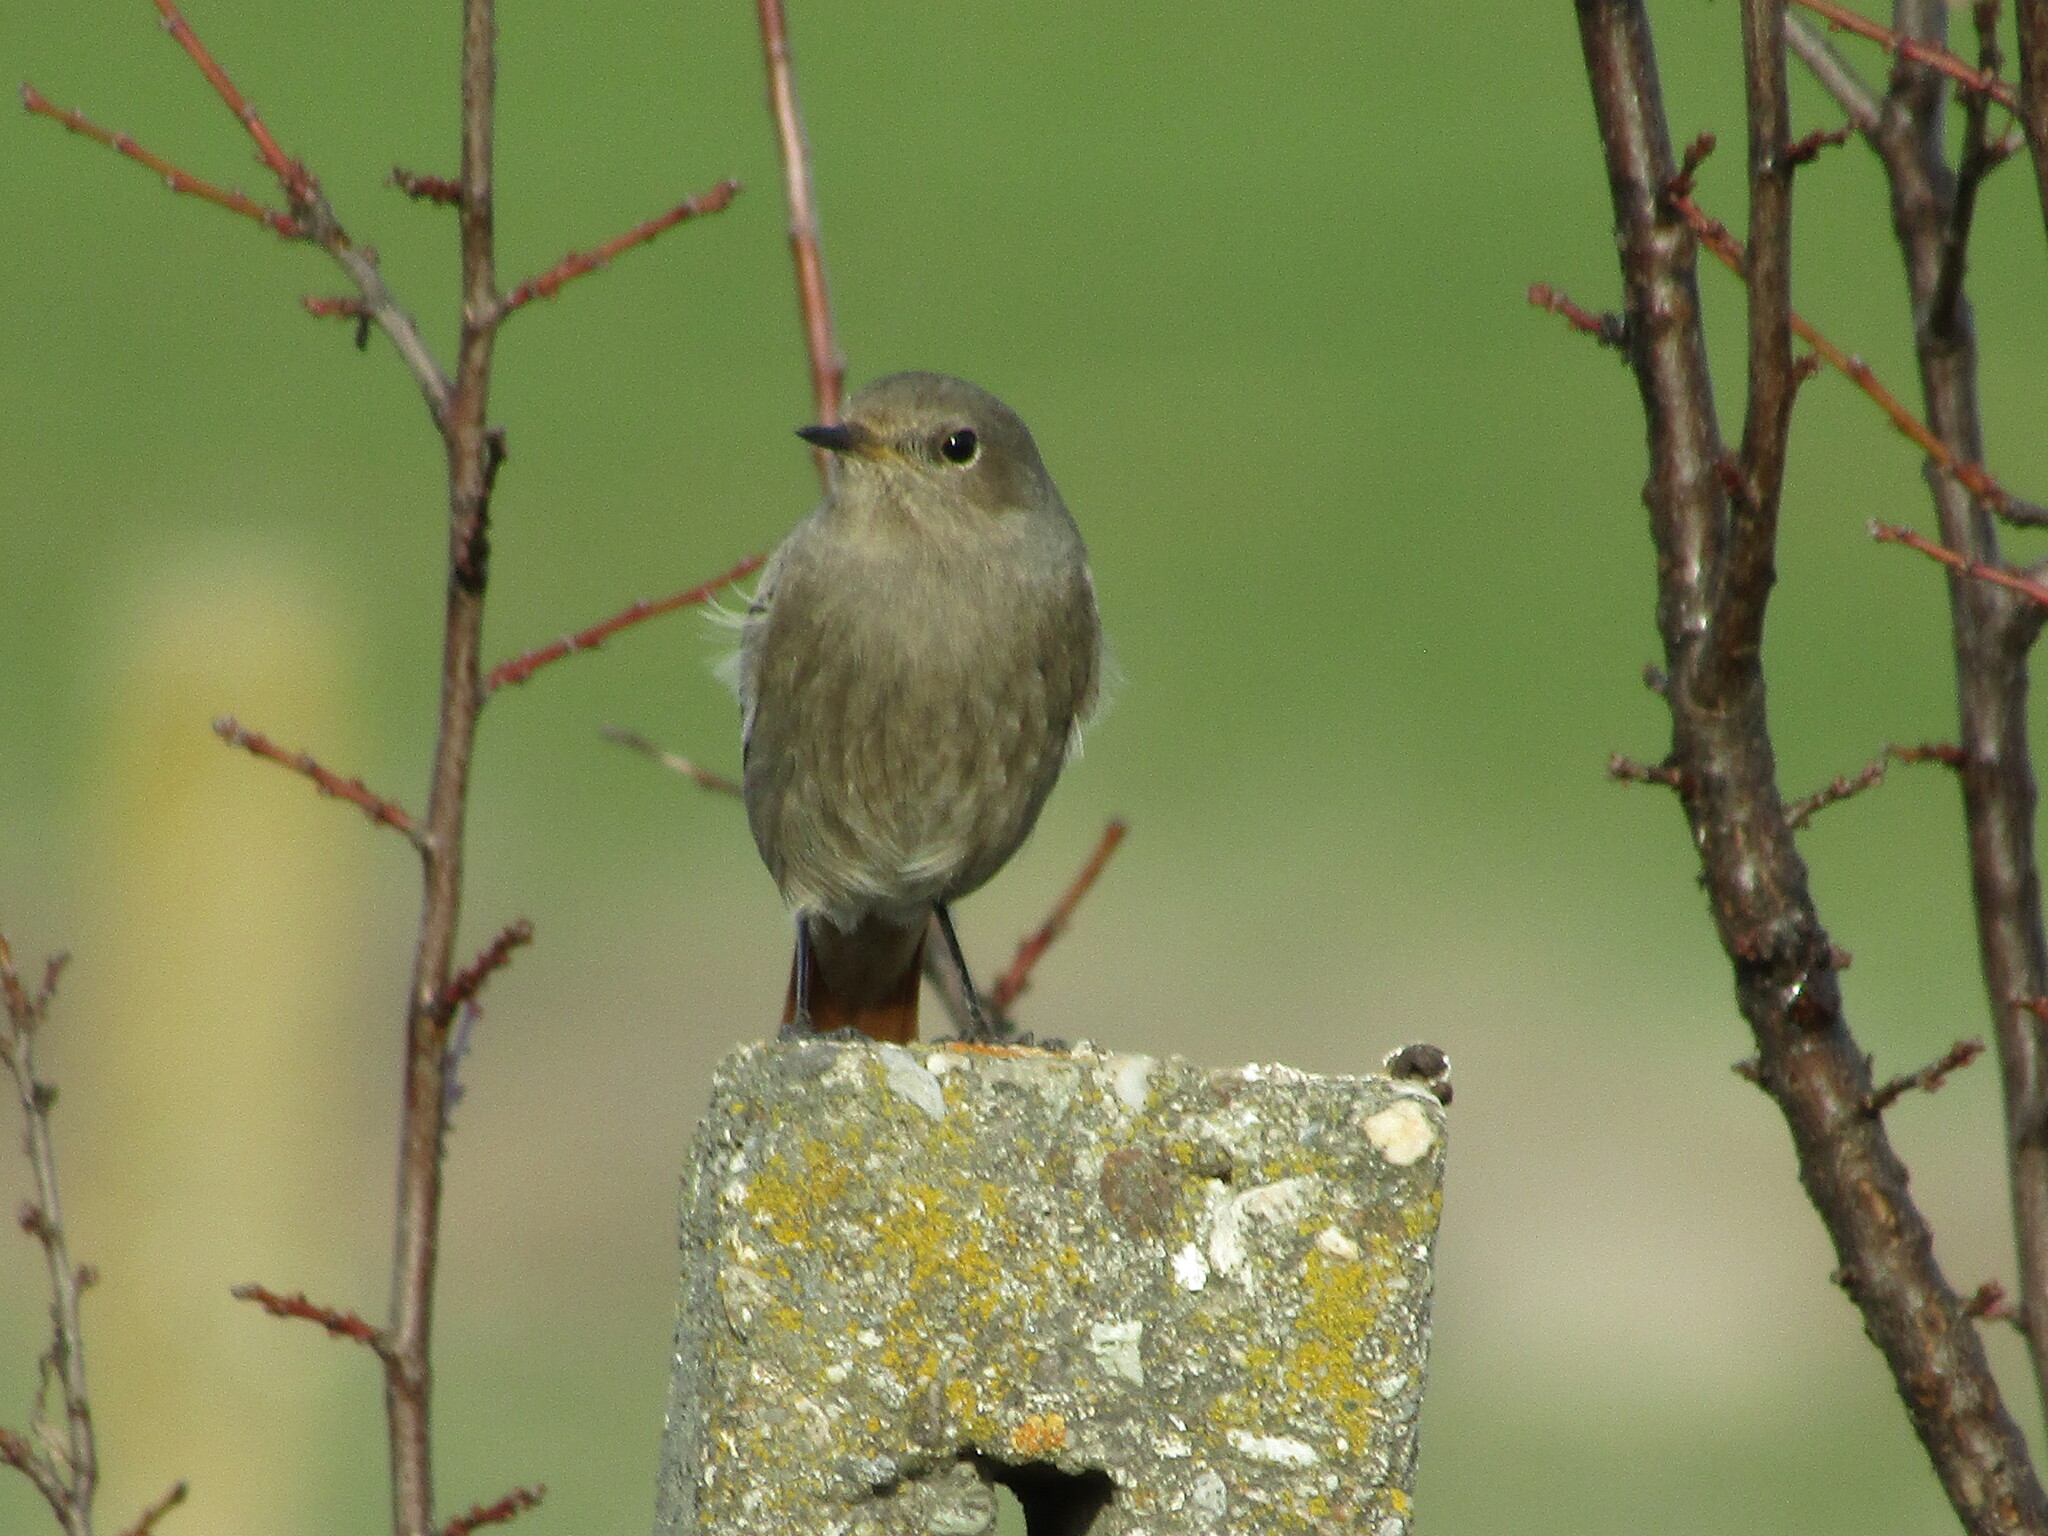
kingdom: Animalia
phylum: Chordata
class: Aves
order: Passeriformes
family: Muscicapidae
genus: Phoenicurus
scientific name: Phoenicurus ochruros
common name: Black redstart
